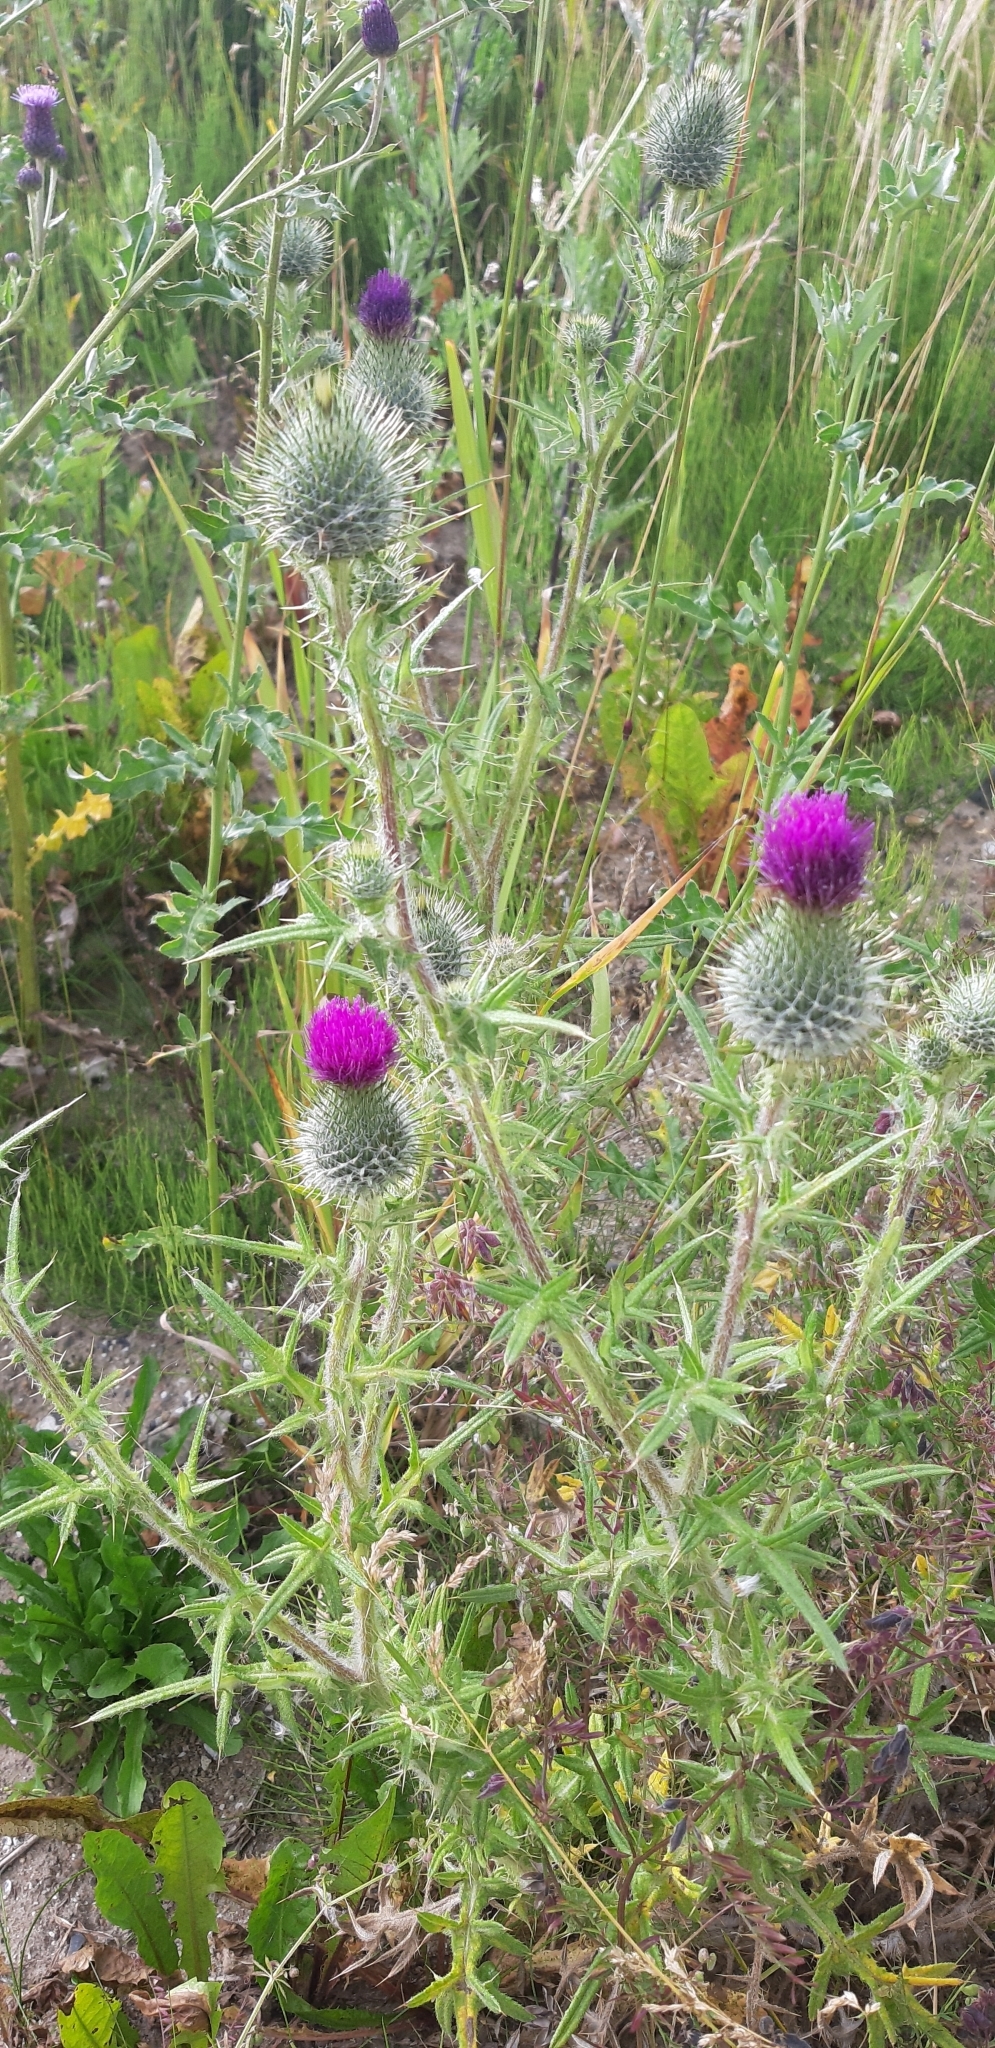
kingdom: Plantae
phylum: Tracheophyta
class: Magnoliopsida
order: Asterales
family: Asteraceae
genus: Cirsium
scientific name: Cirsium vulgare
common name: Bull thistle
